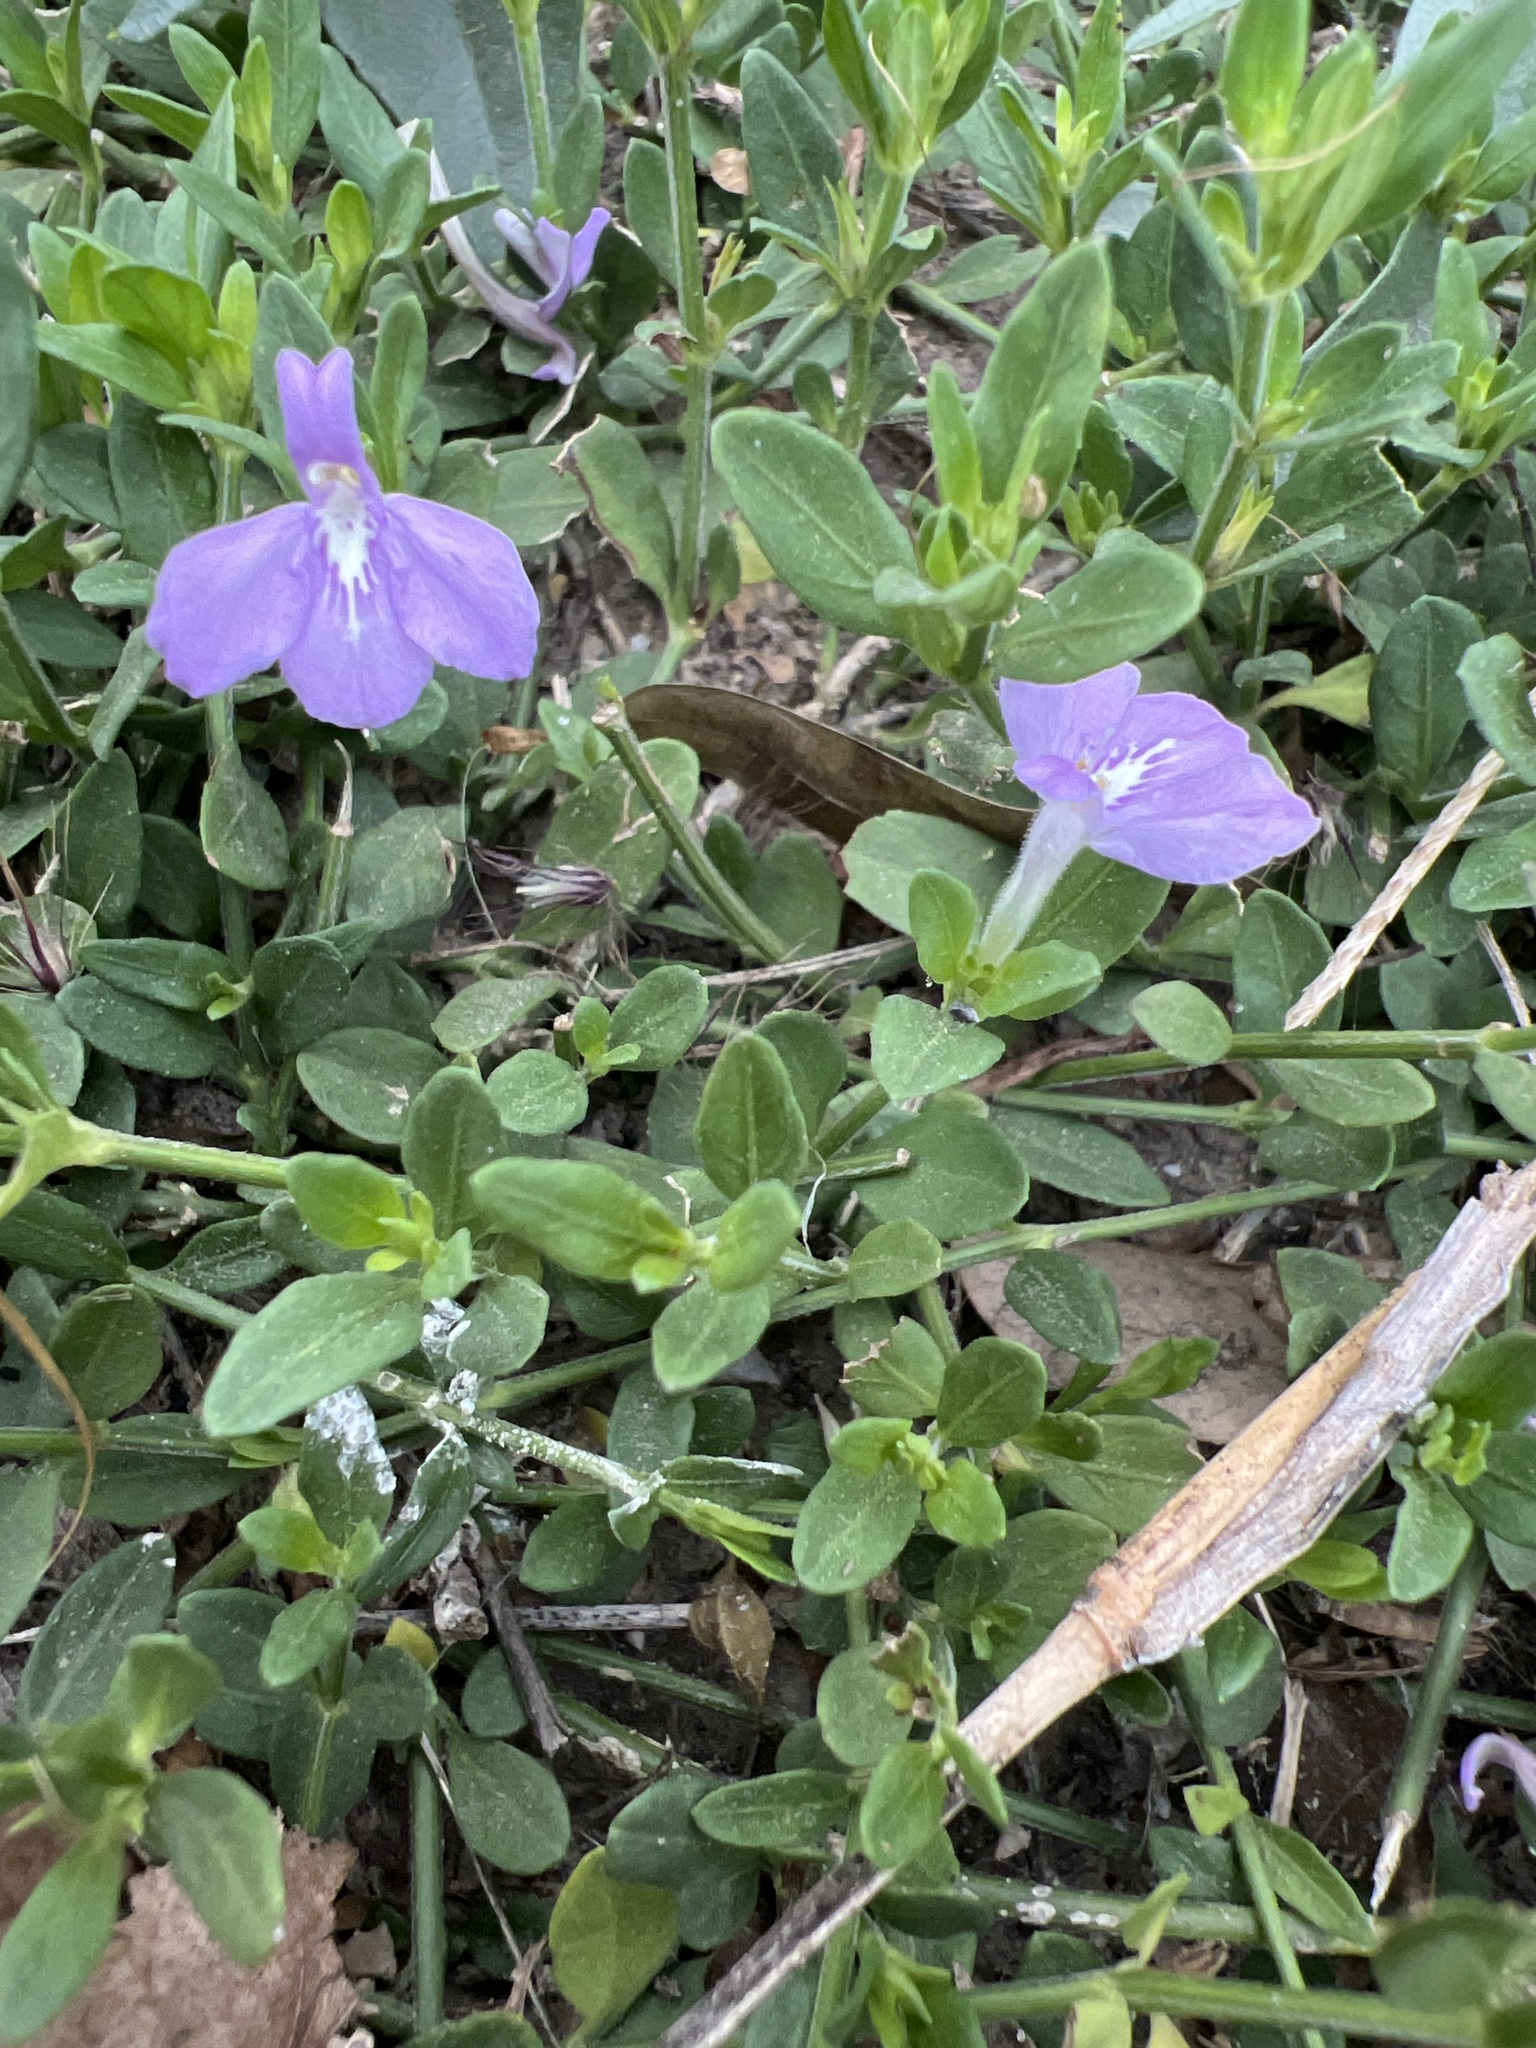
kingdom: Plantae
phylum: Tracheophyta
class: Magnoliopsida
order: Lamiales
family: Acanthaceae
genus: Justicia
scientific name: Justicia pilosella
